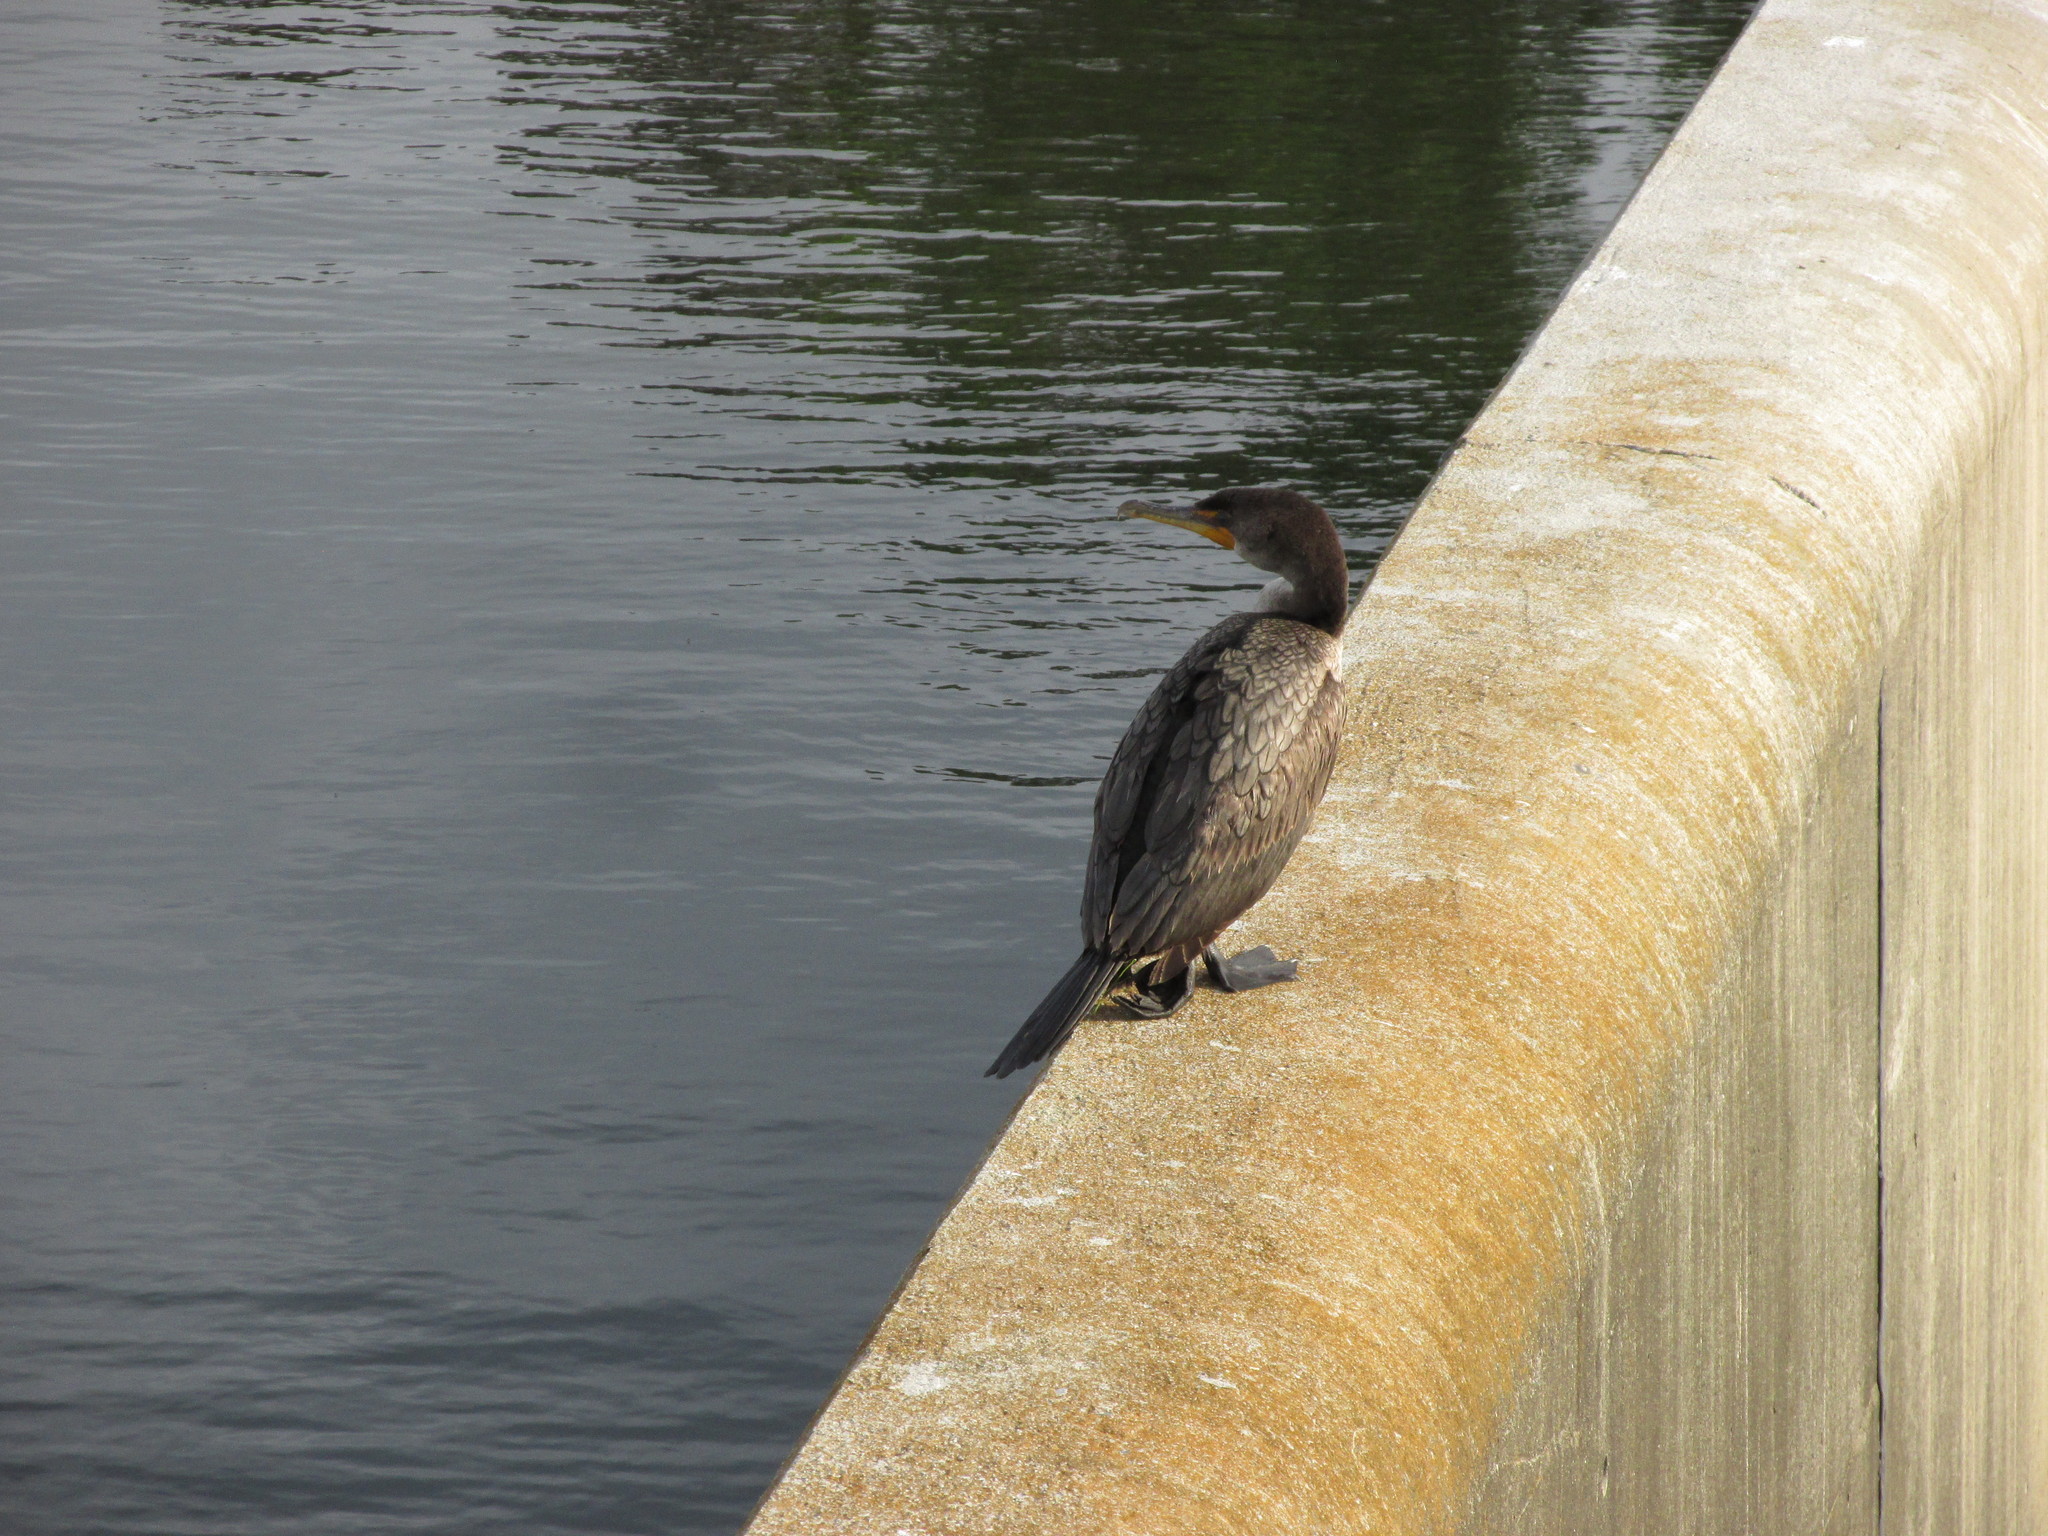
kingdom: Animalia
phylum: Chordata
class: Aves
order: Suliformes
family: Phalacrocoracidae
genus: Phalacrocorax
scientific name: Phalacrocorax auritus
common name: Double-crested cormorant
